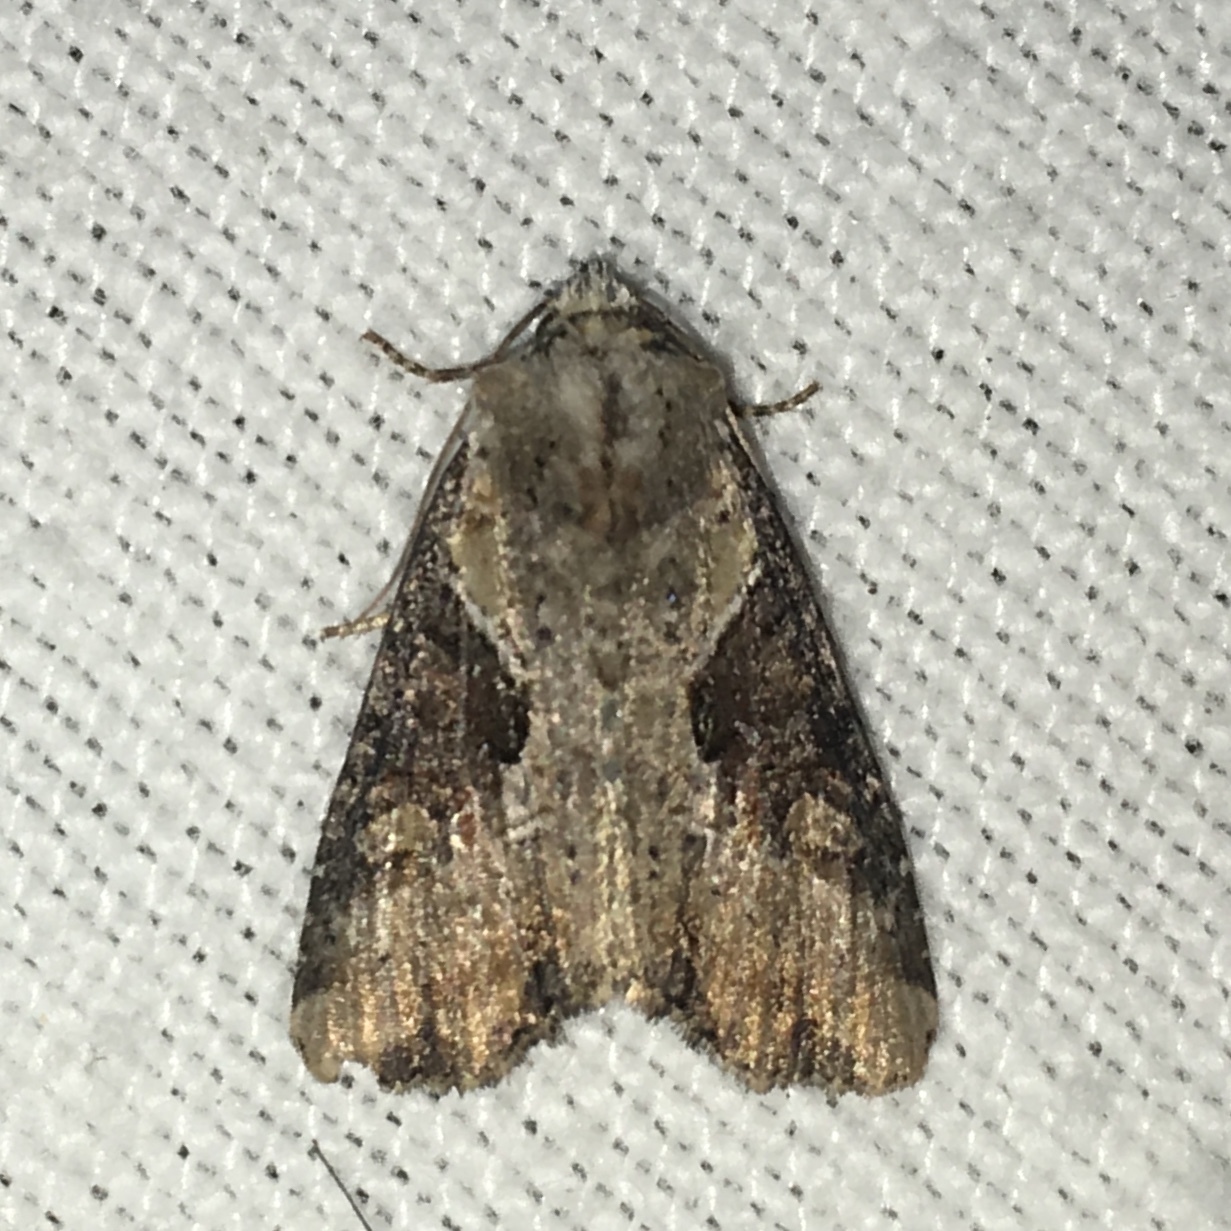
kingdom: Animalia
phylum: Arthropoda
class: Insecta
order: Lepidoptera
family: Noctuidae
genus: Lateroligia
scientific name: Lateroligia ophiogramma
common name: Double lobed
